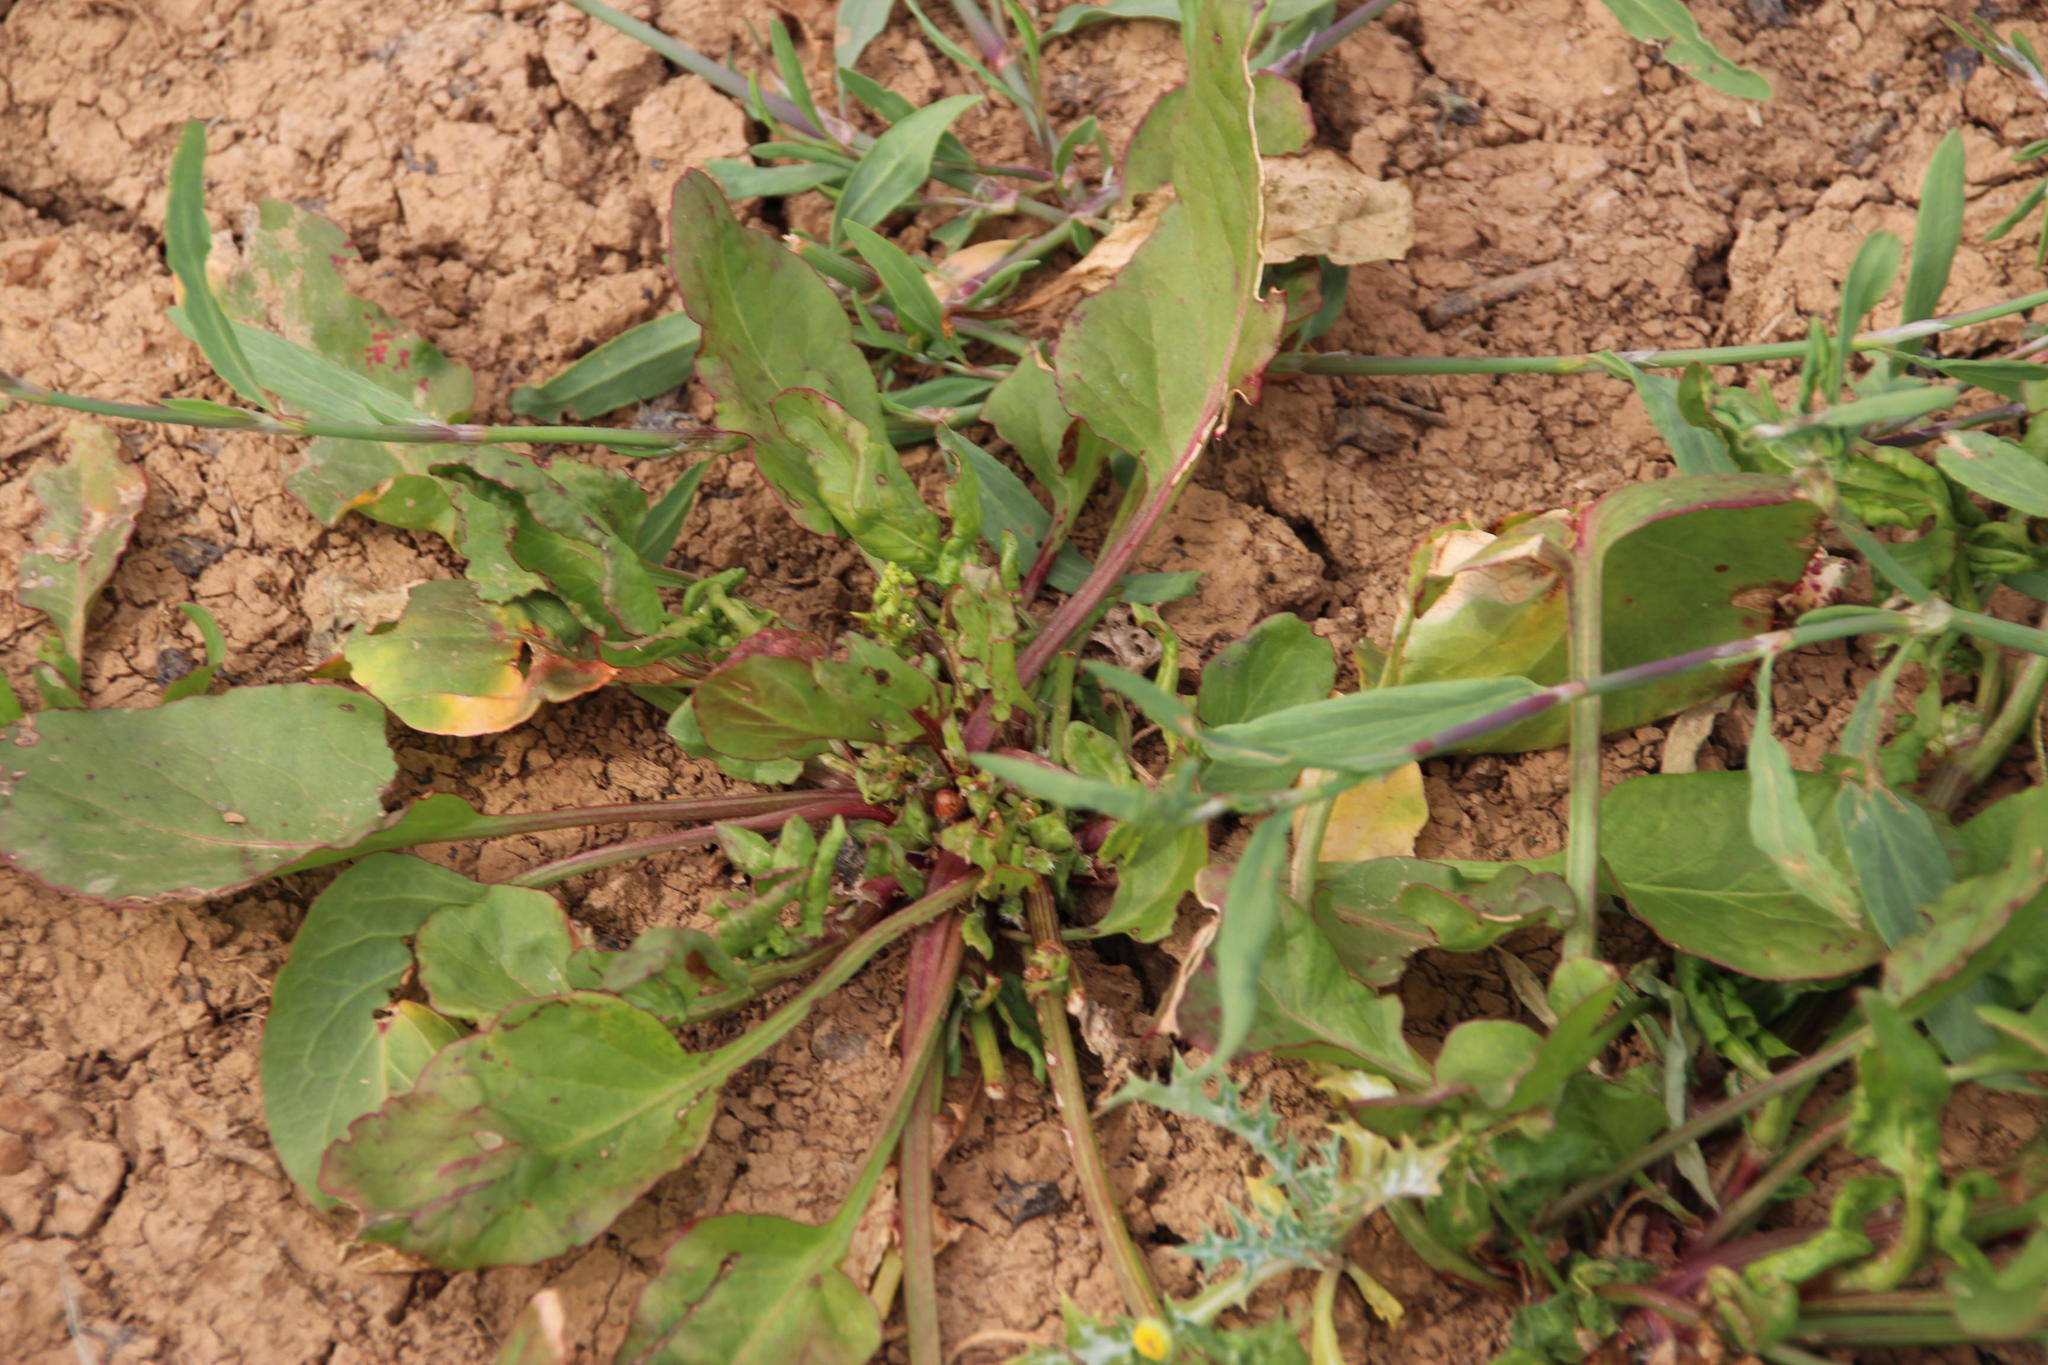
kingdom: Plantae
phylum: Tracheophyta
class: Magnoliopsida
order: Caryophyllales
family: Polygonaceae
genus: Rumex
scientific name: Rumex hypogaeus
